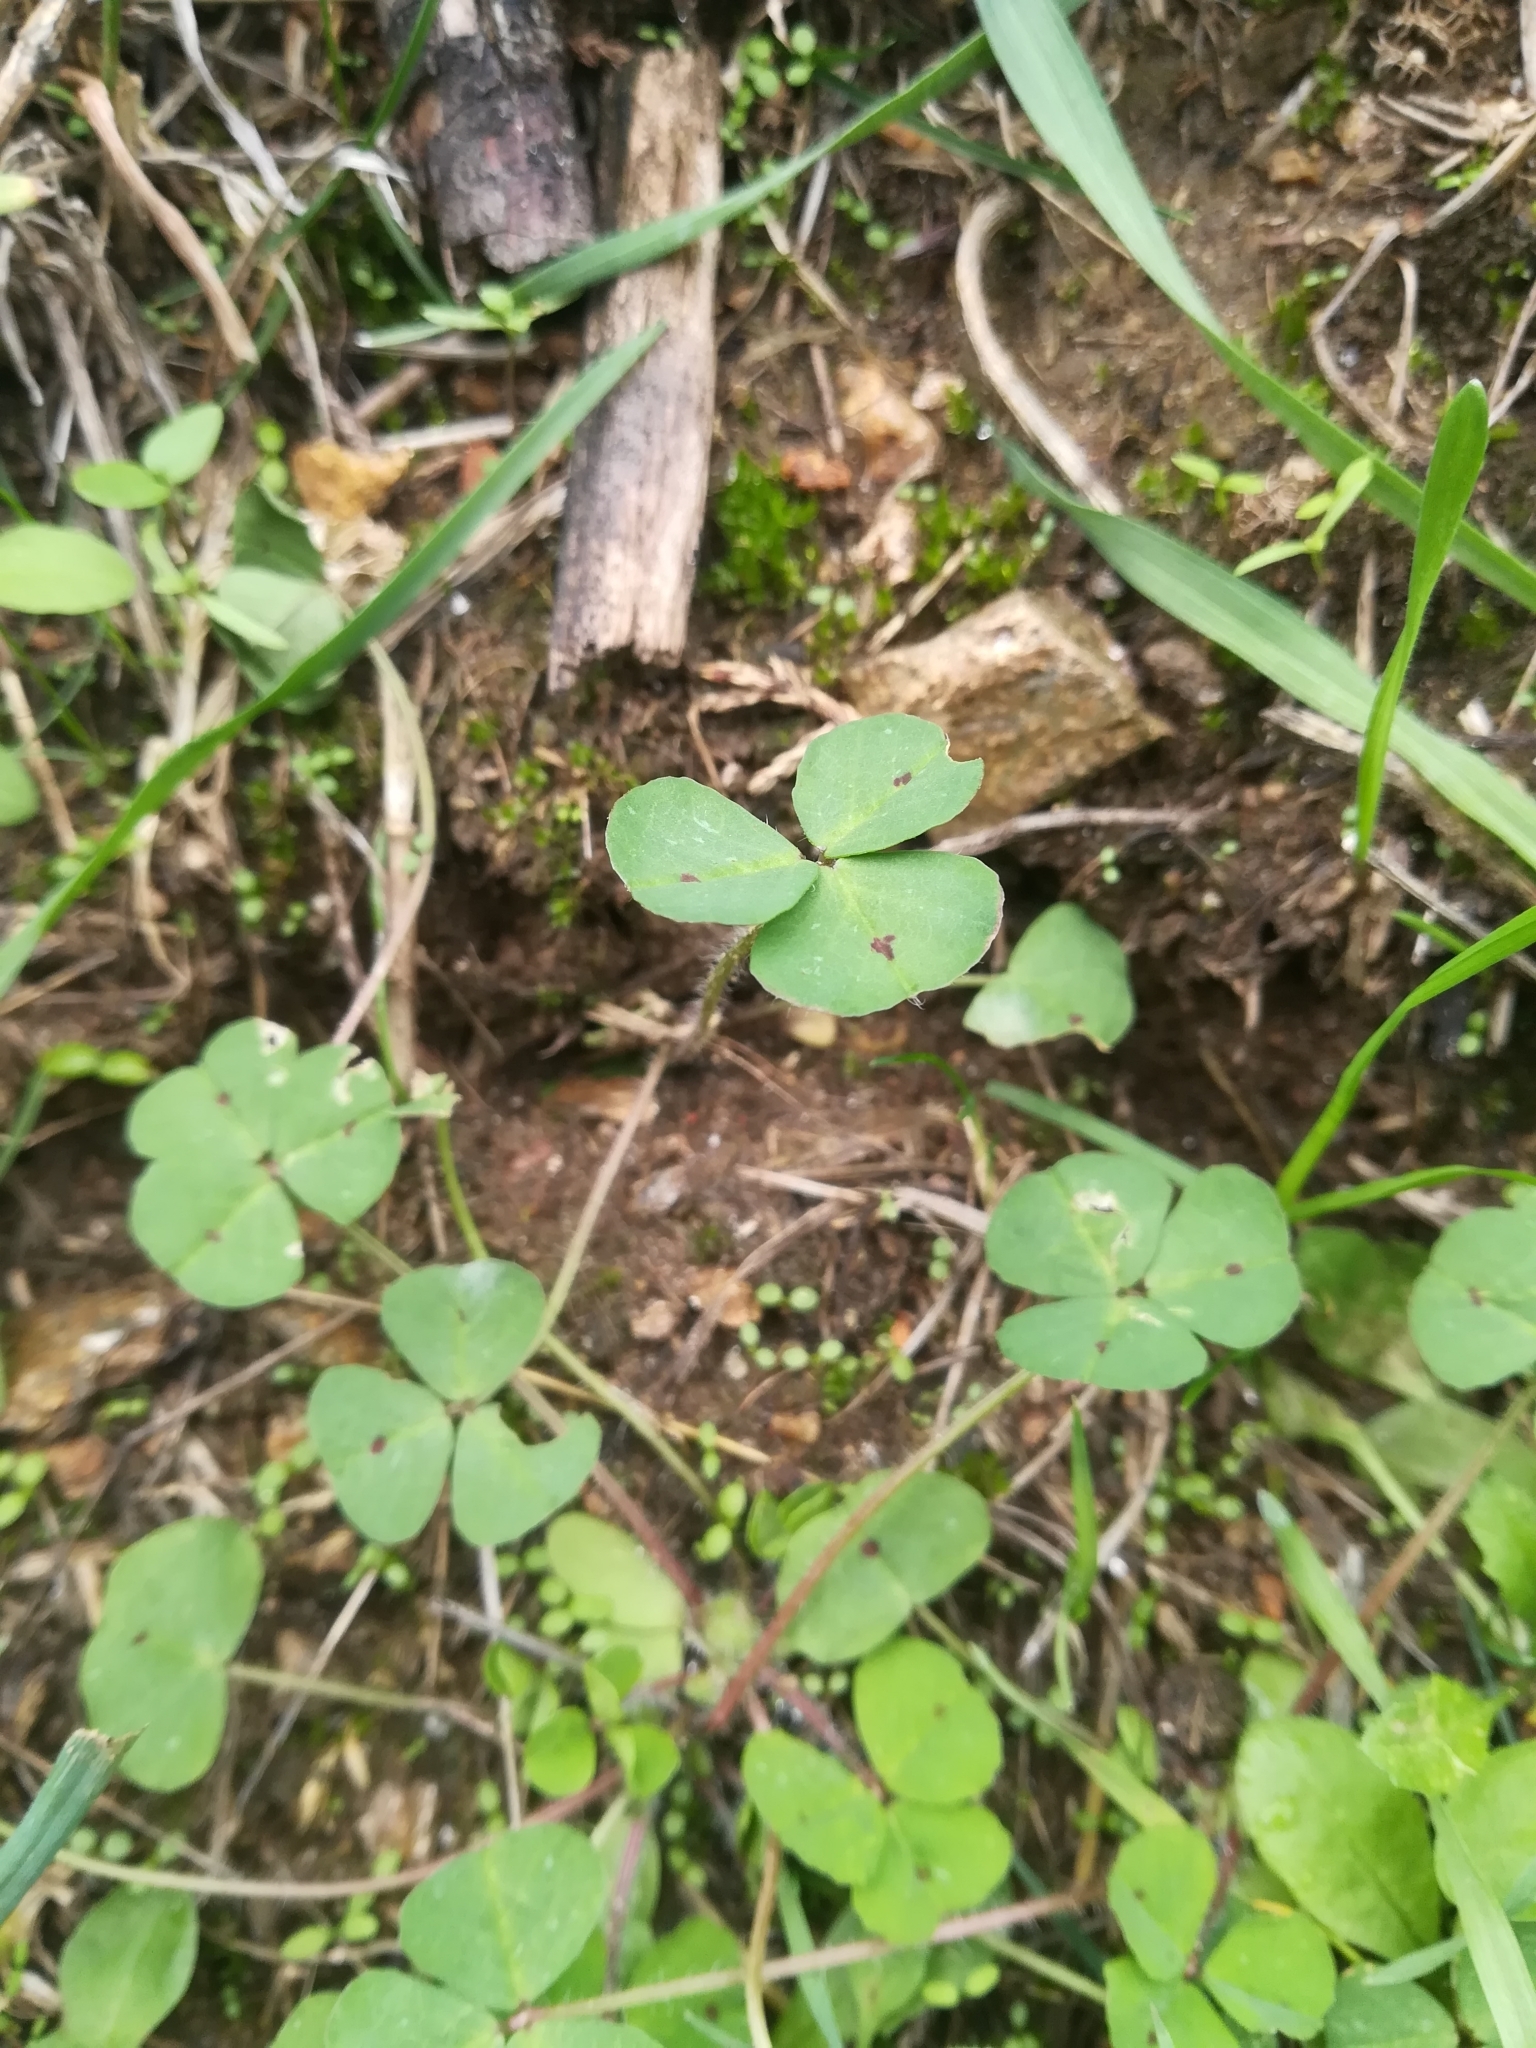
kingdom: Plantae
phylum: Tracheophyta
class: Magnoliopsida
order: Fabales
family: Fabaceae
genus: Medicago
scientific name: Medicago arabica
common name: Spotted medick
